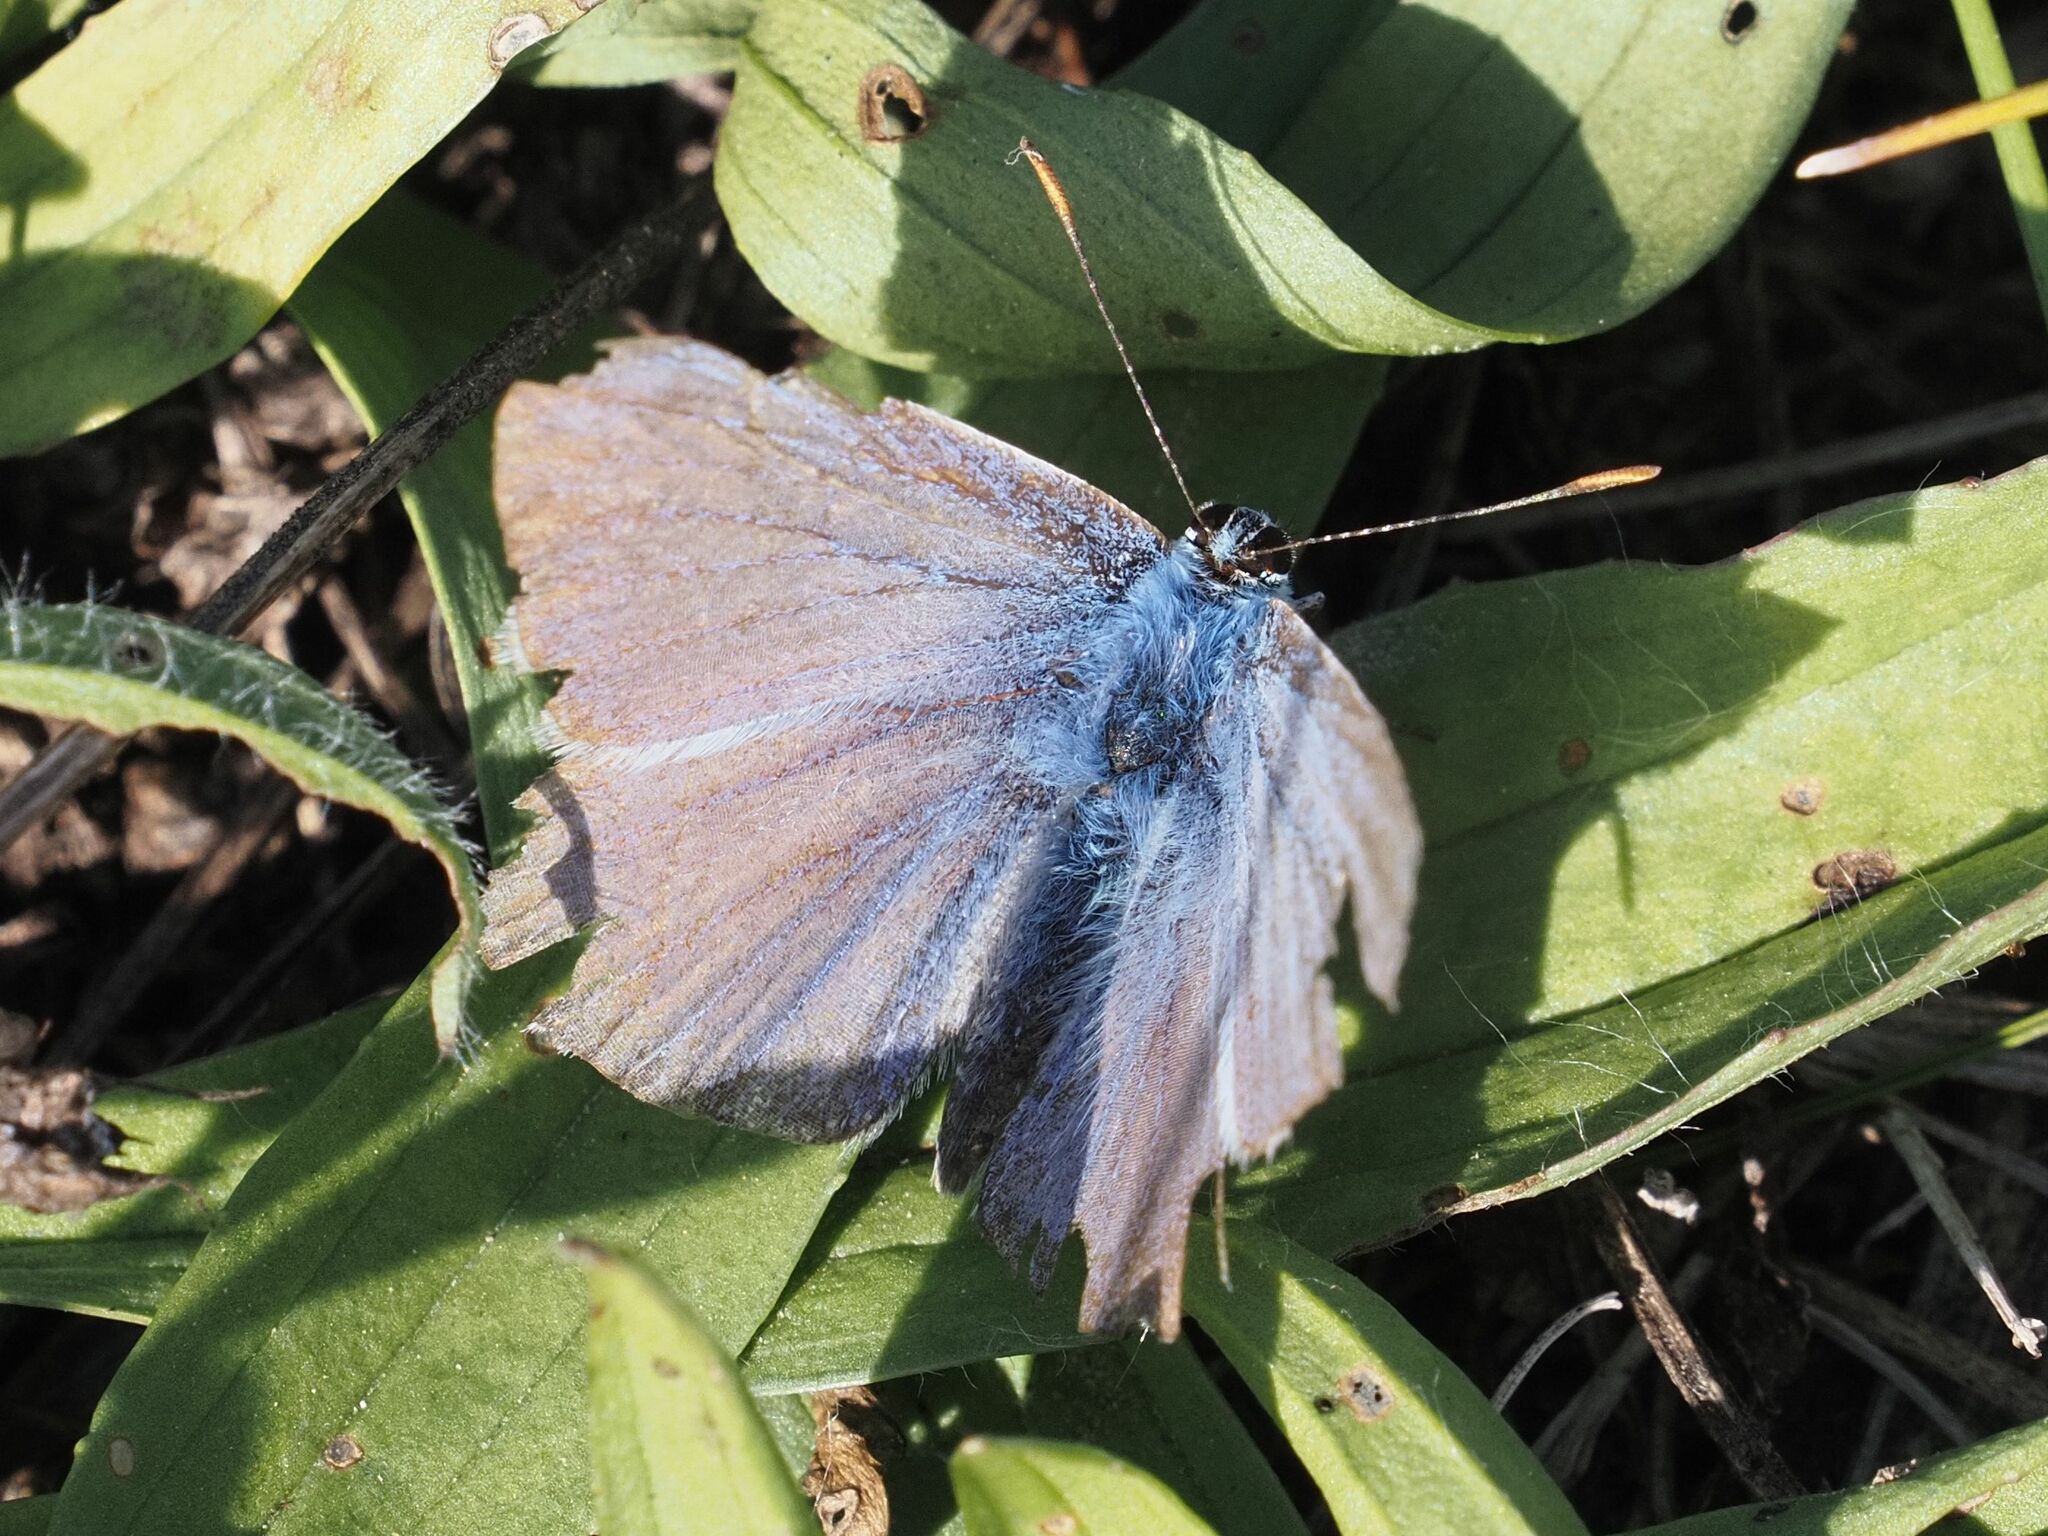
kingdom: Animalia
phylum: Arthropoda
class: Insecta
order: Lepidoptera
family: Lycaenidae
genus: Polyommatus
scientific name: Polyommatus icarus
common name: Common blue
